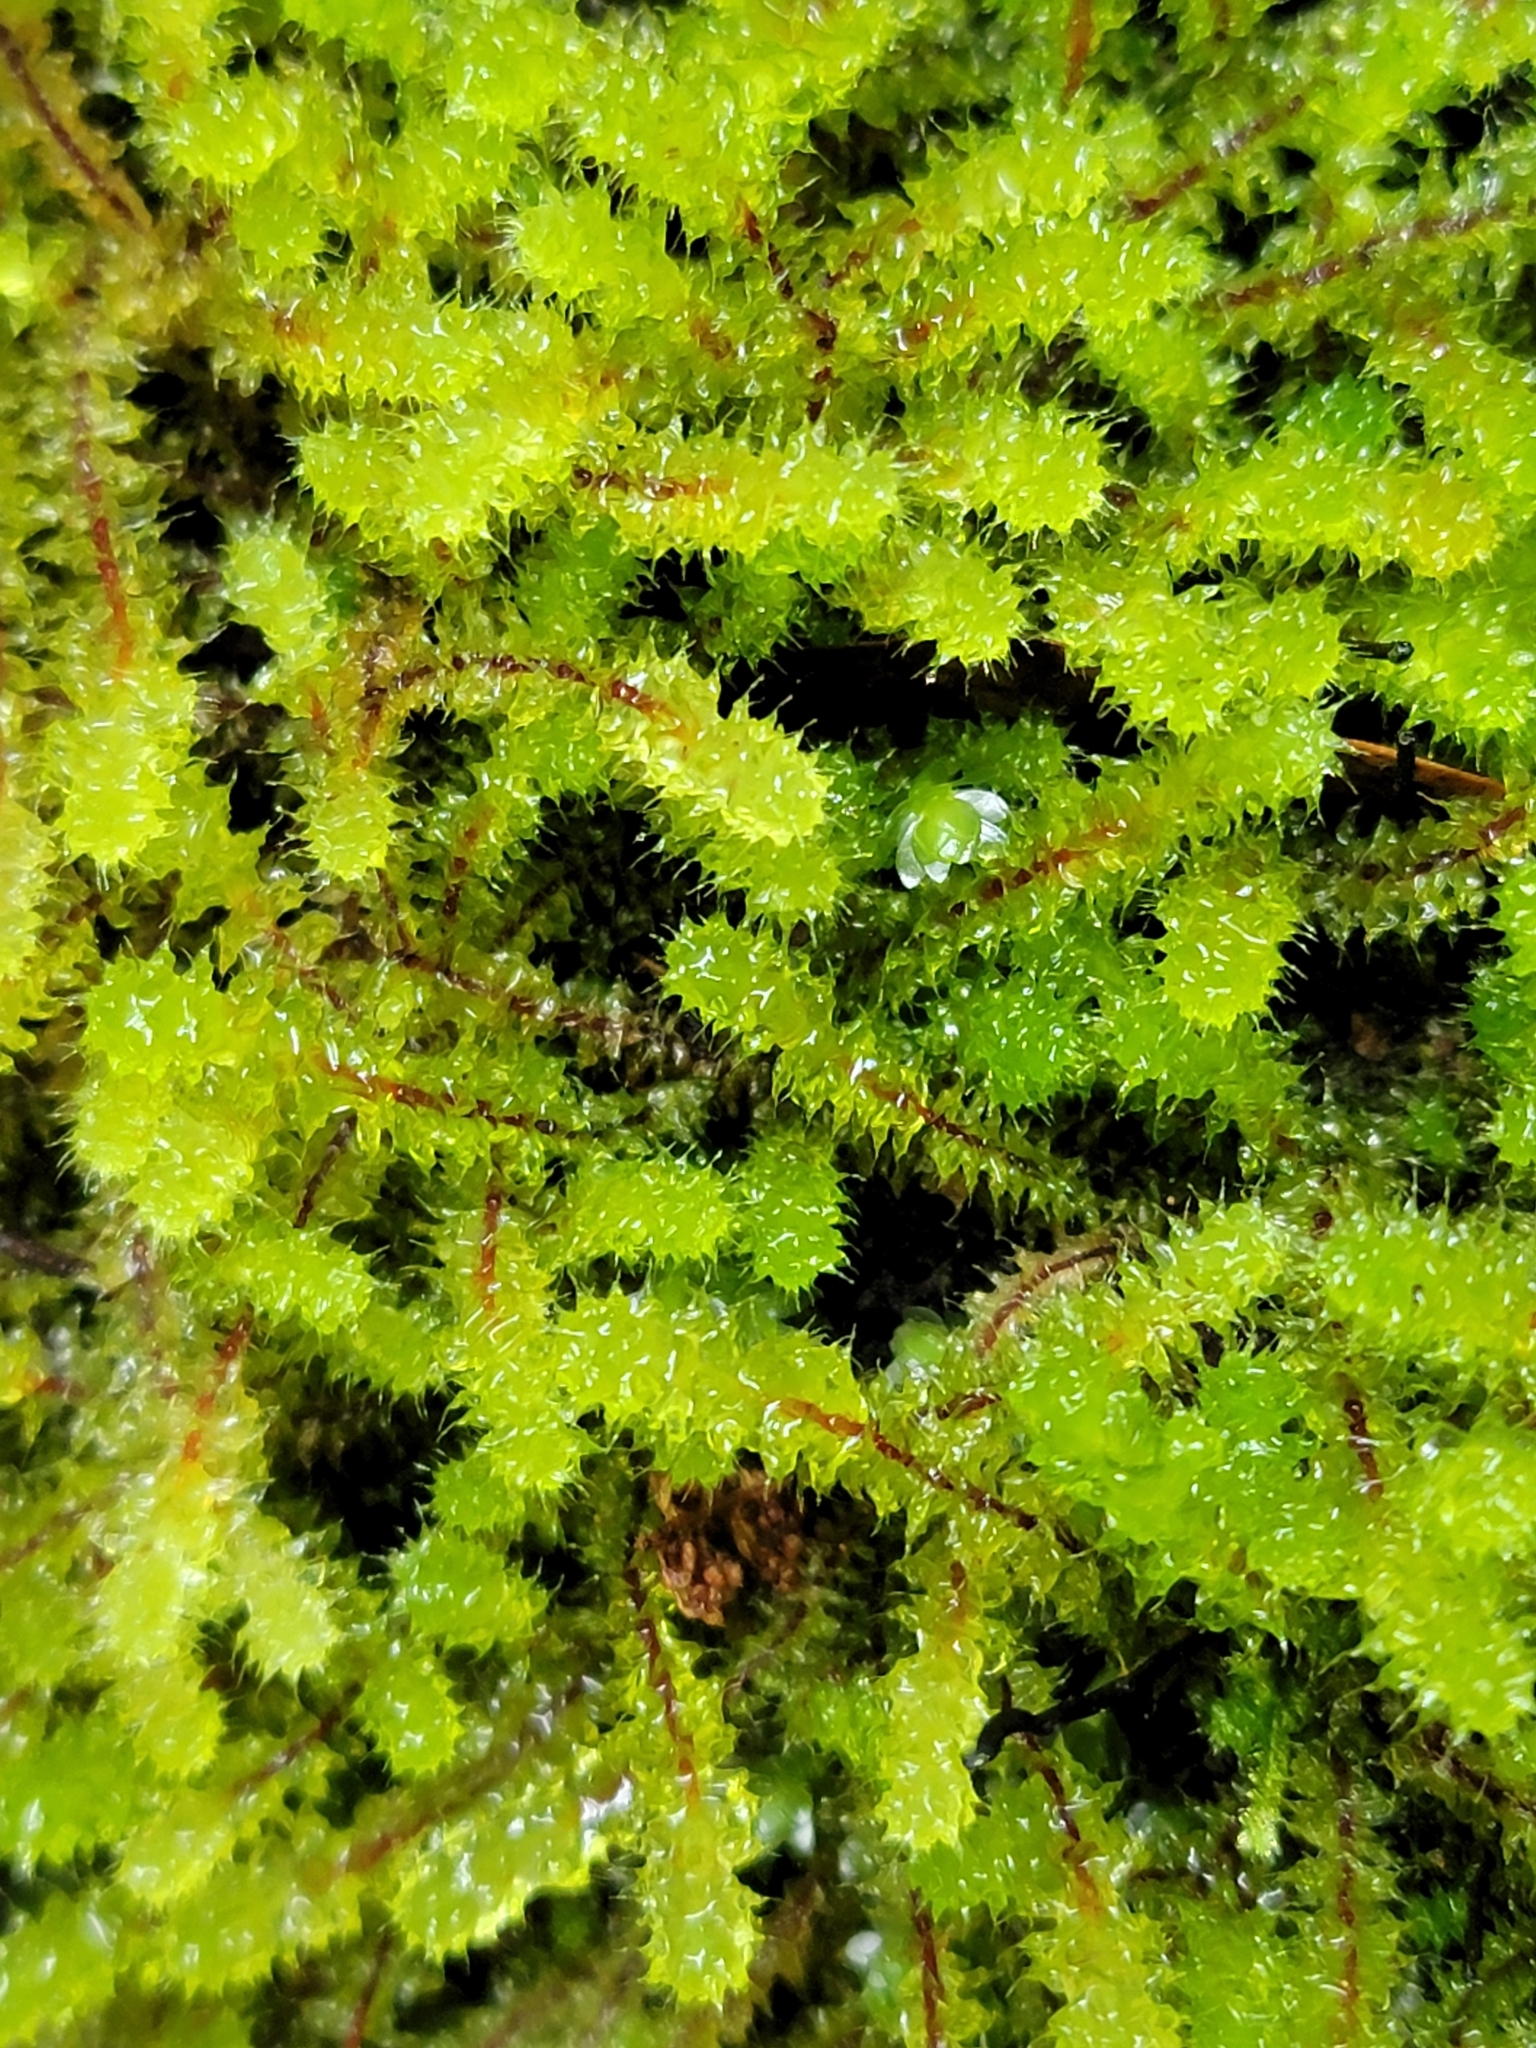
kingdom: Plantae
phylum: Bryophyta
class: Bryopsida
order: Ptychomniales
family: Ptychomniaceae
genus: Ptychomnion
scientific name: Ptychomnion aciculare
